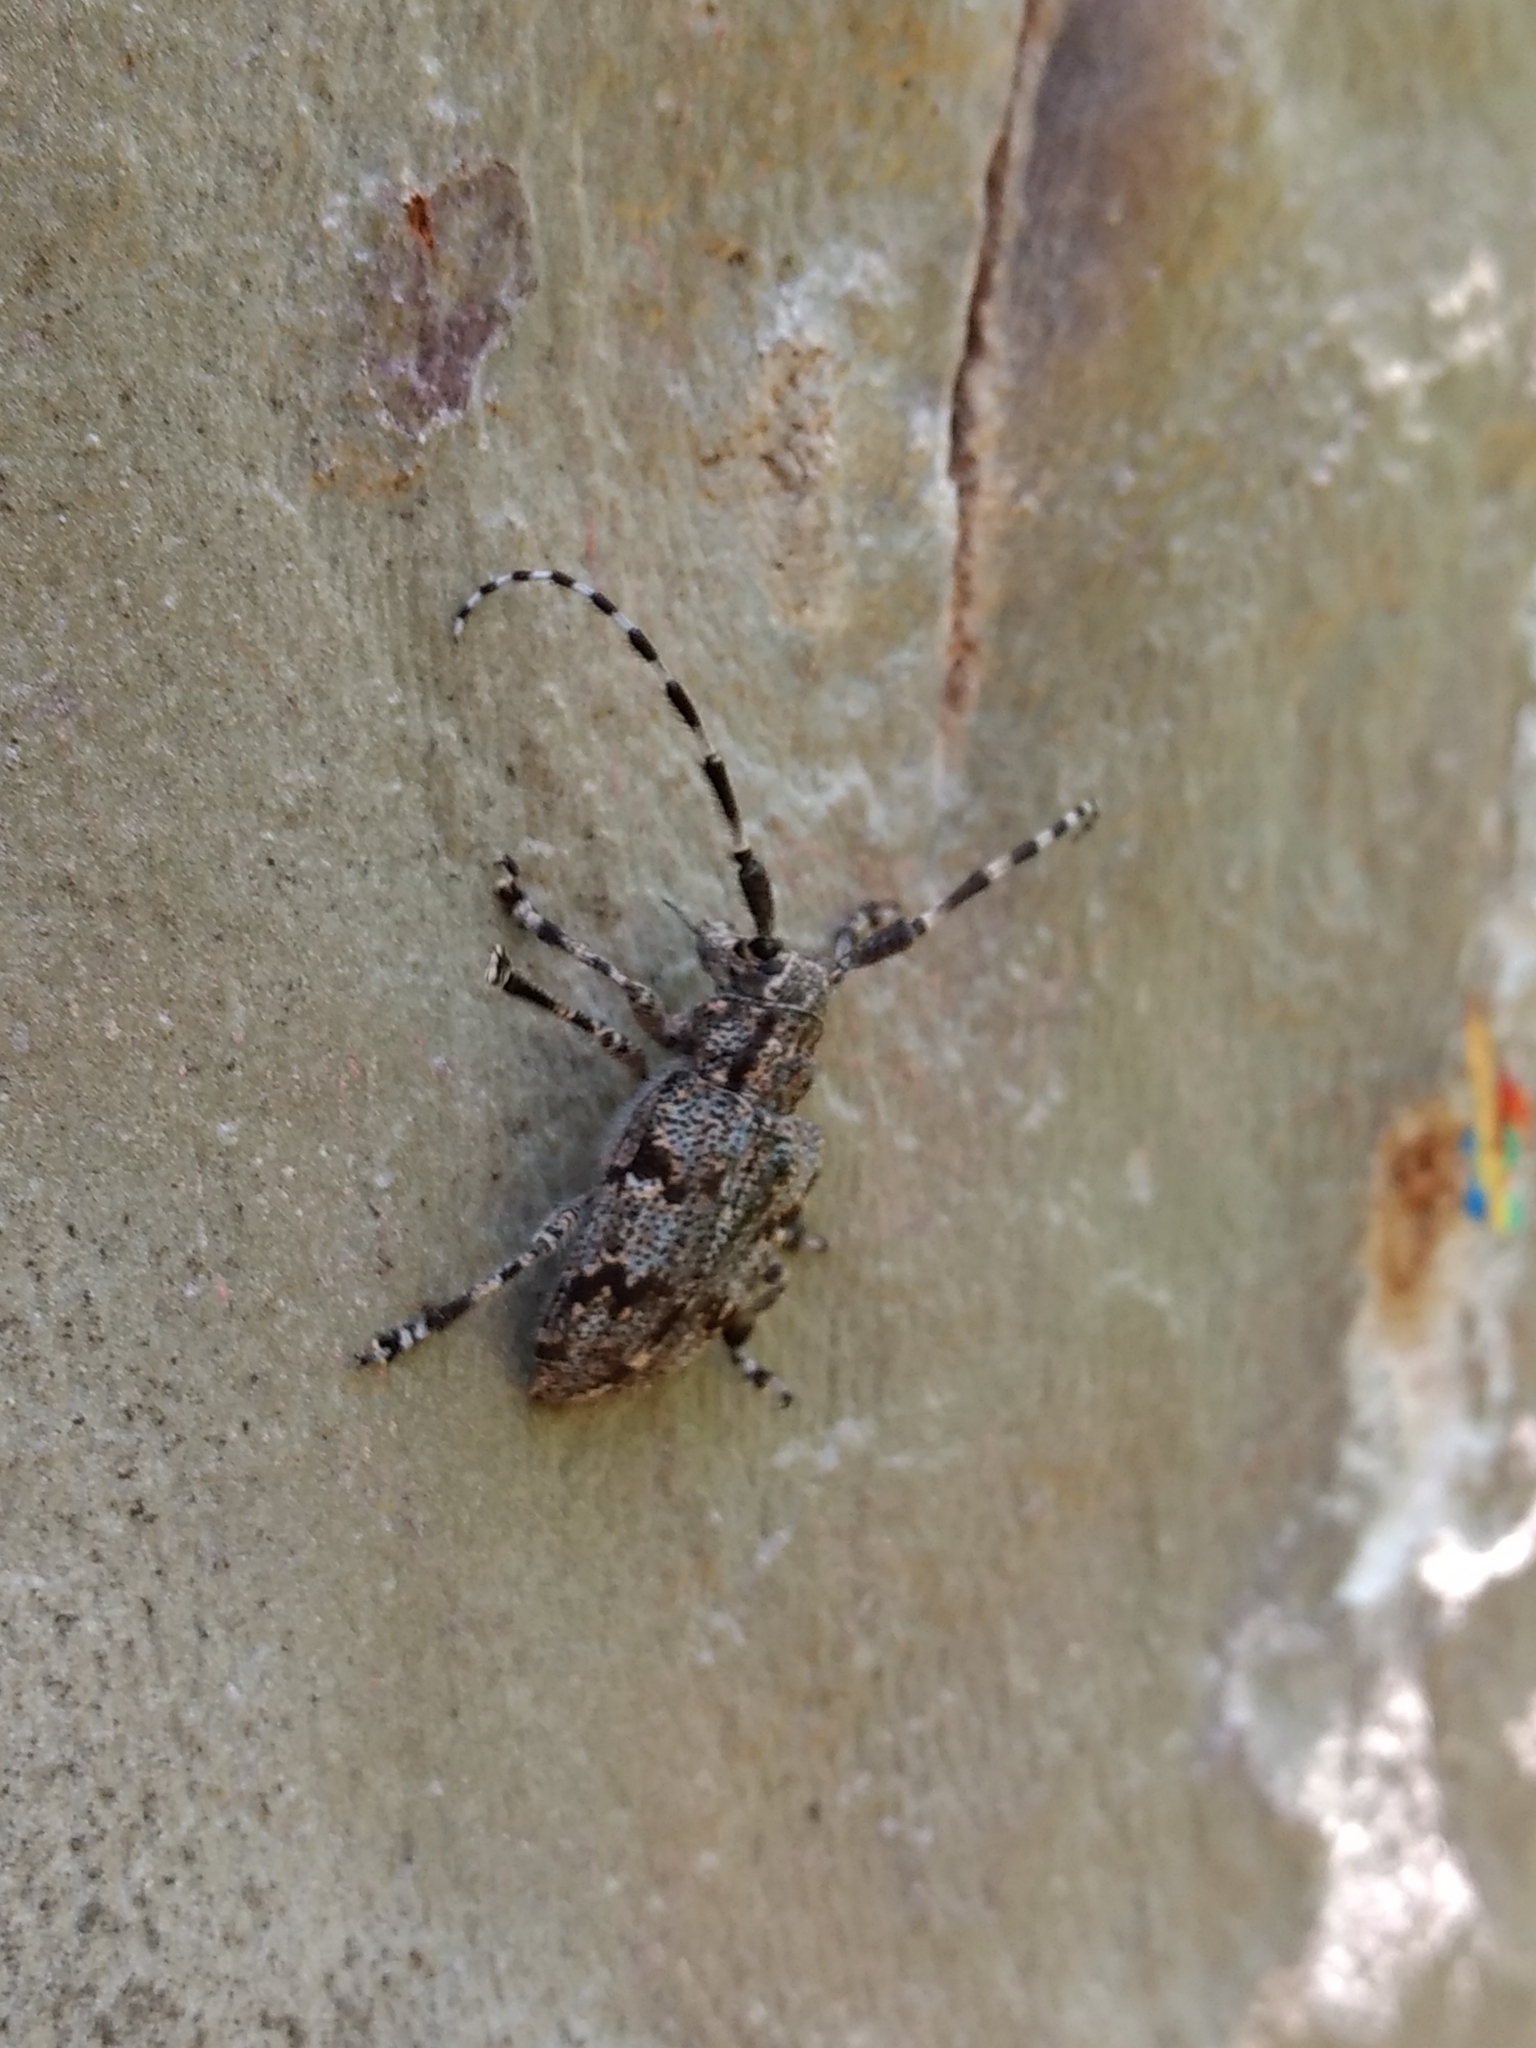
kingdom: Animalia
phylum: Arthropoda
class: Insecta
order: Coleoptera
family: Cerambycidae
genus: Synaphaeta
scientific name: Synaphaeta guexi
